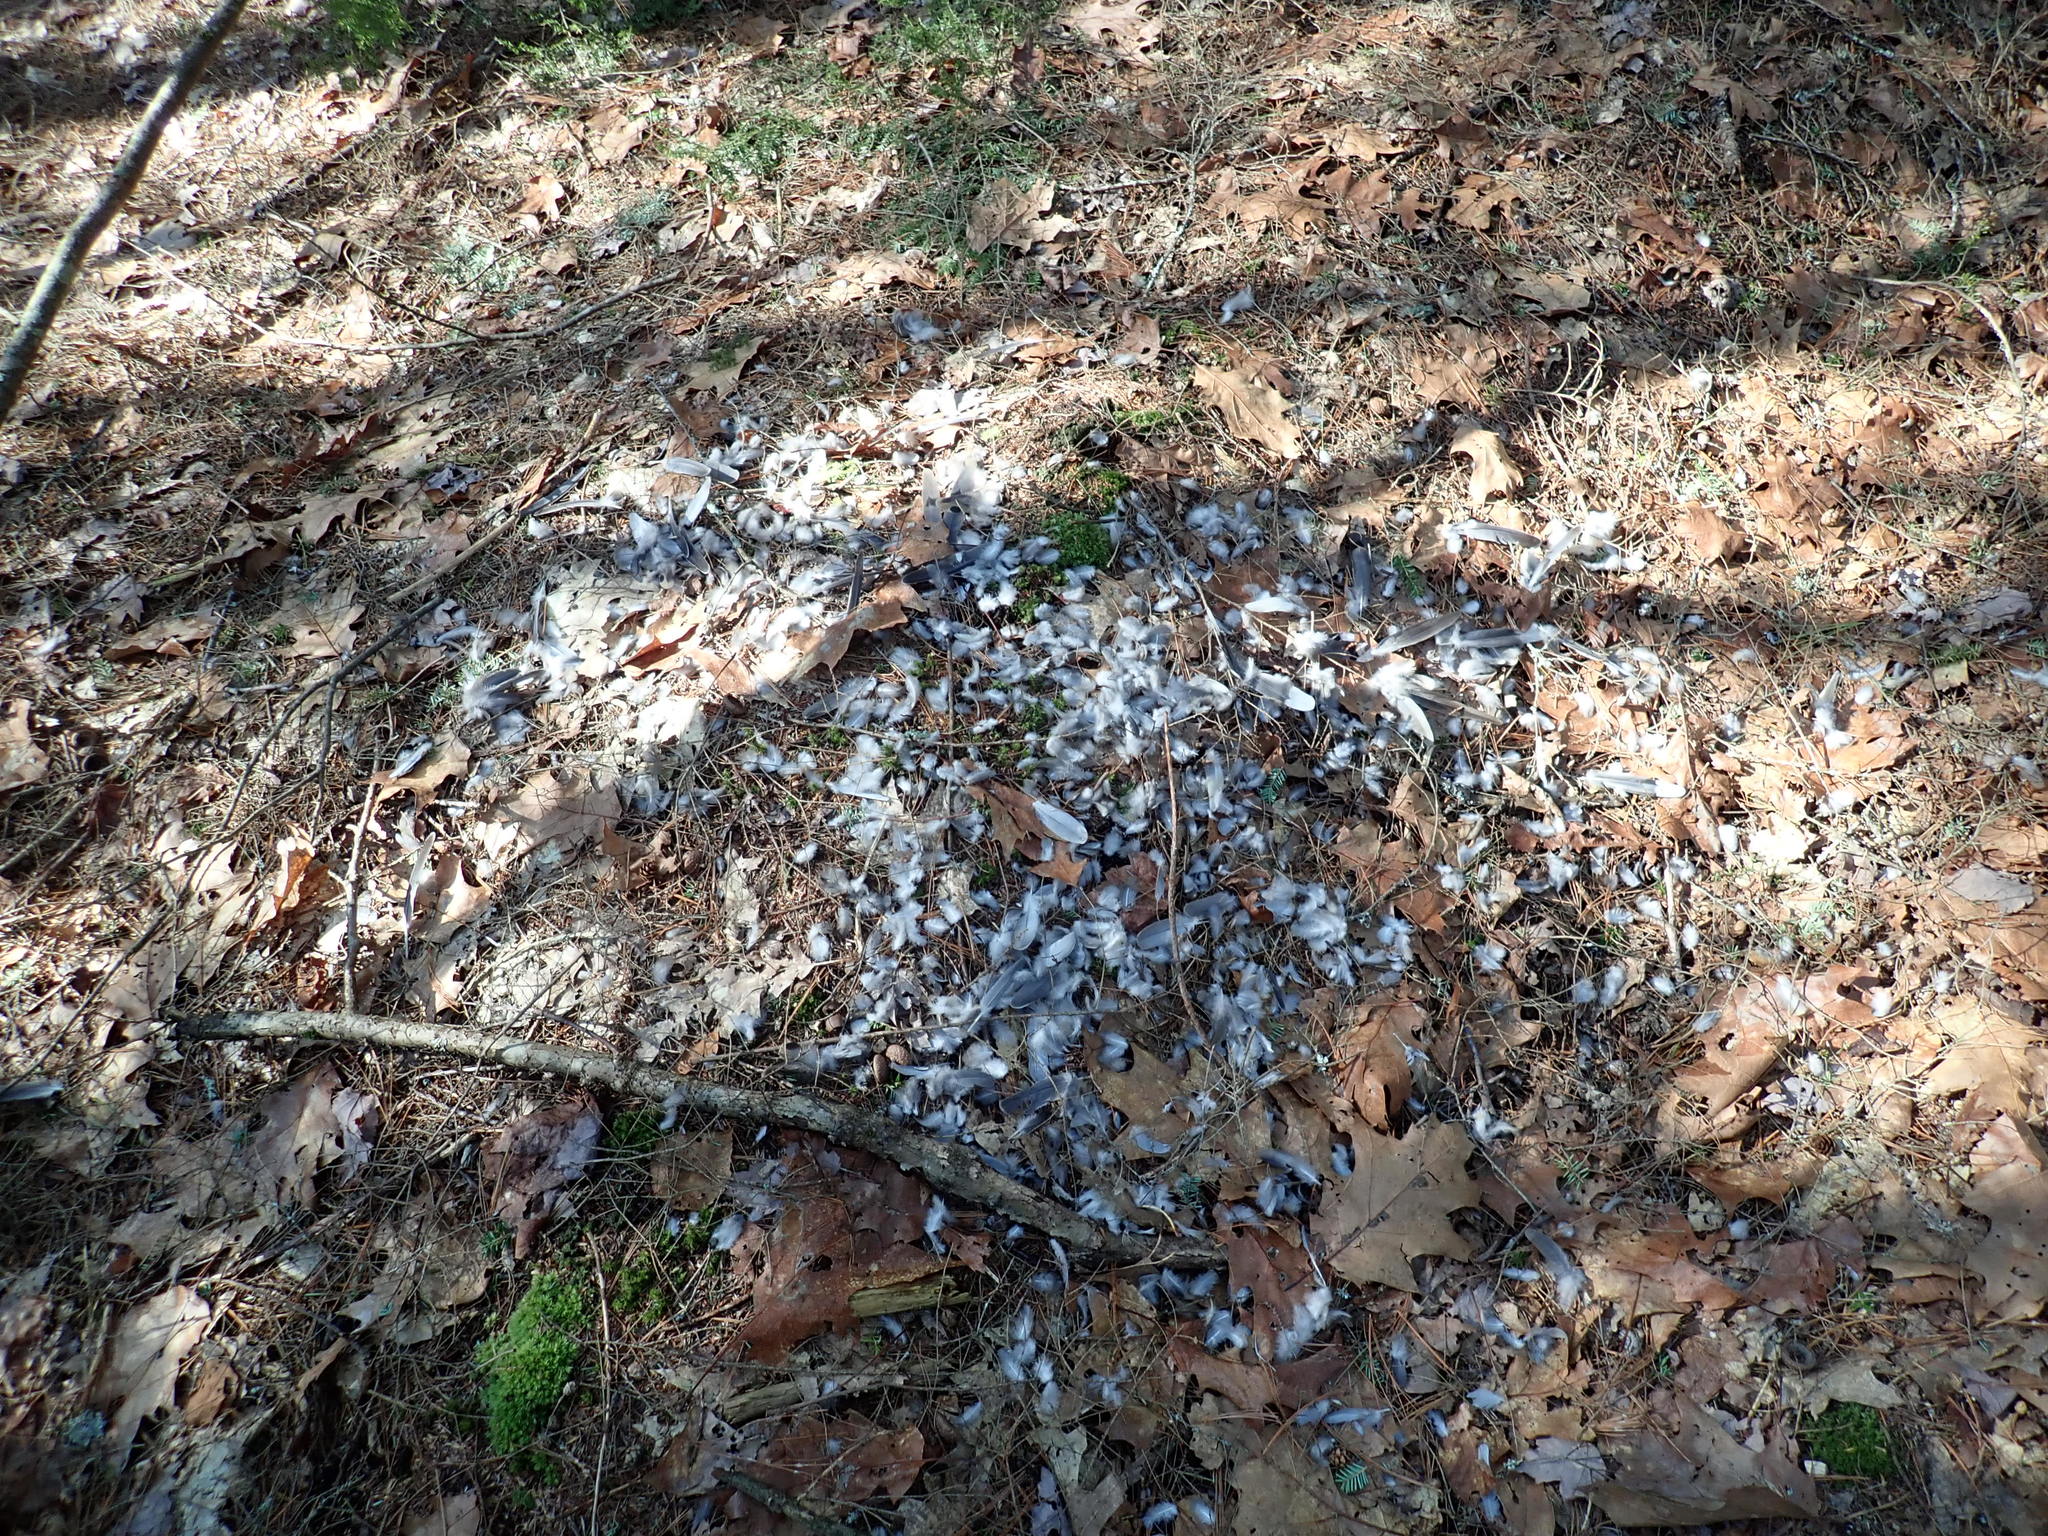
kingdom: Animalia
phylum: Chordata
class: Aves
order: Columbiformes
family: Columbidae
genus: Zenaida
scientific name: Zenaida macroura
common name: Mourning dove
